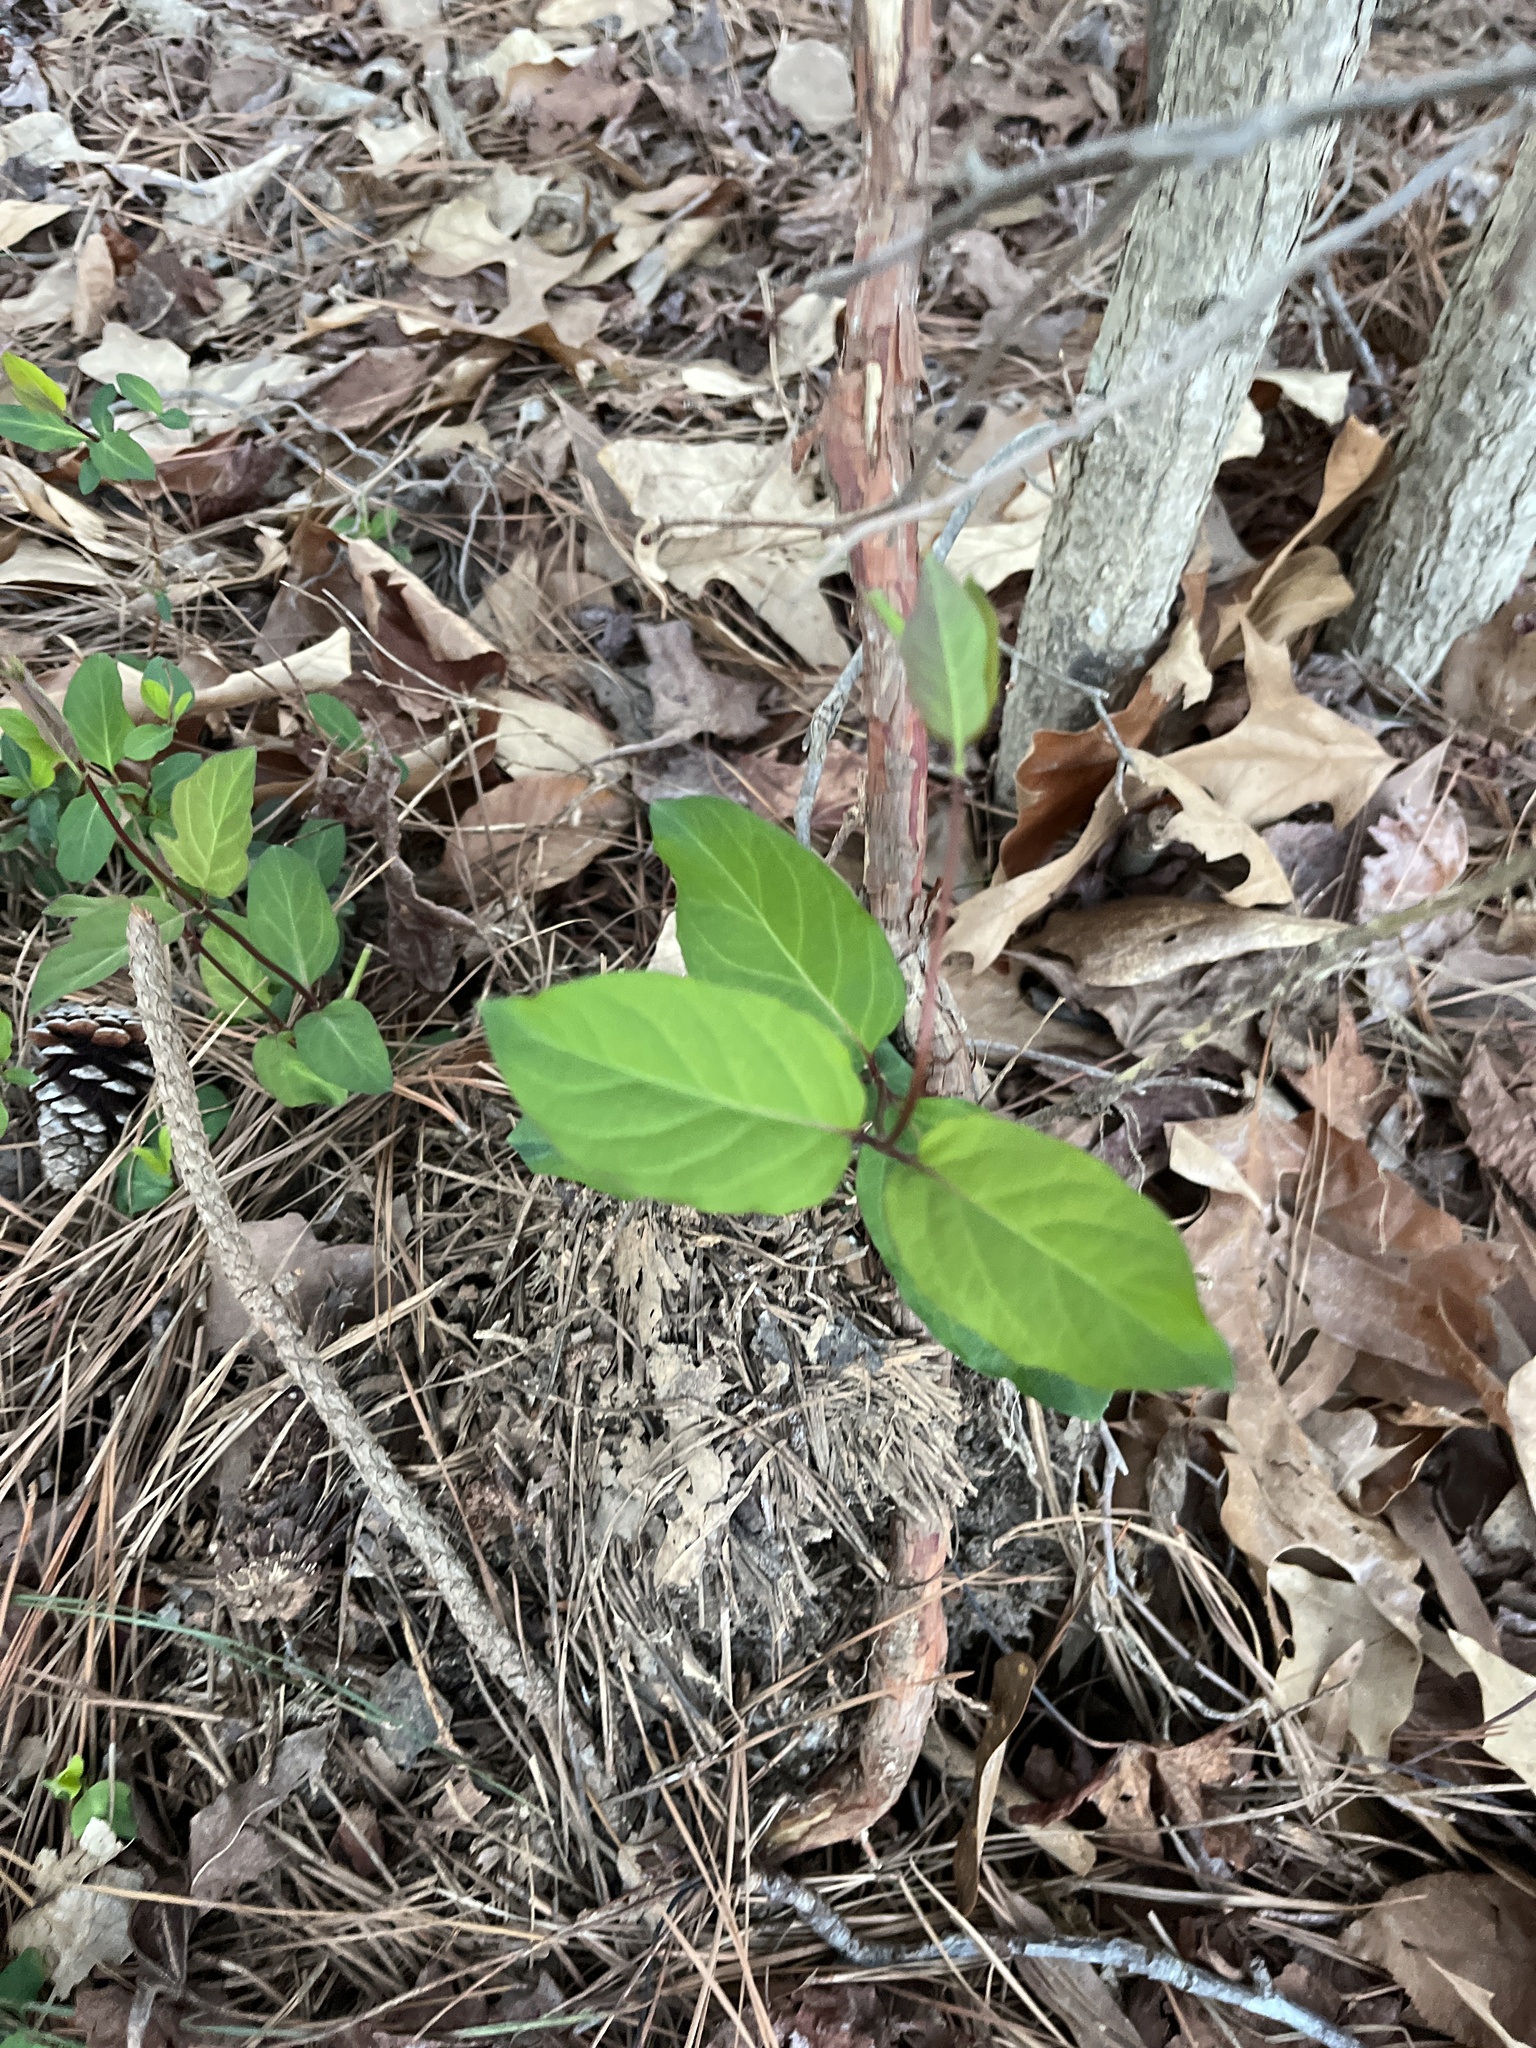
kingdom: Plantae
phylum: Tracheophyta
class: Magnoliopsida
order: Dipsacales
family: Caprifoliaceae
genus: Lonicera
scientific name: Lonicera japonica
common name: Japanese honeysuckle
